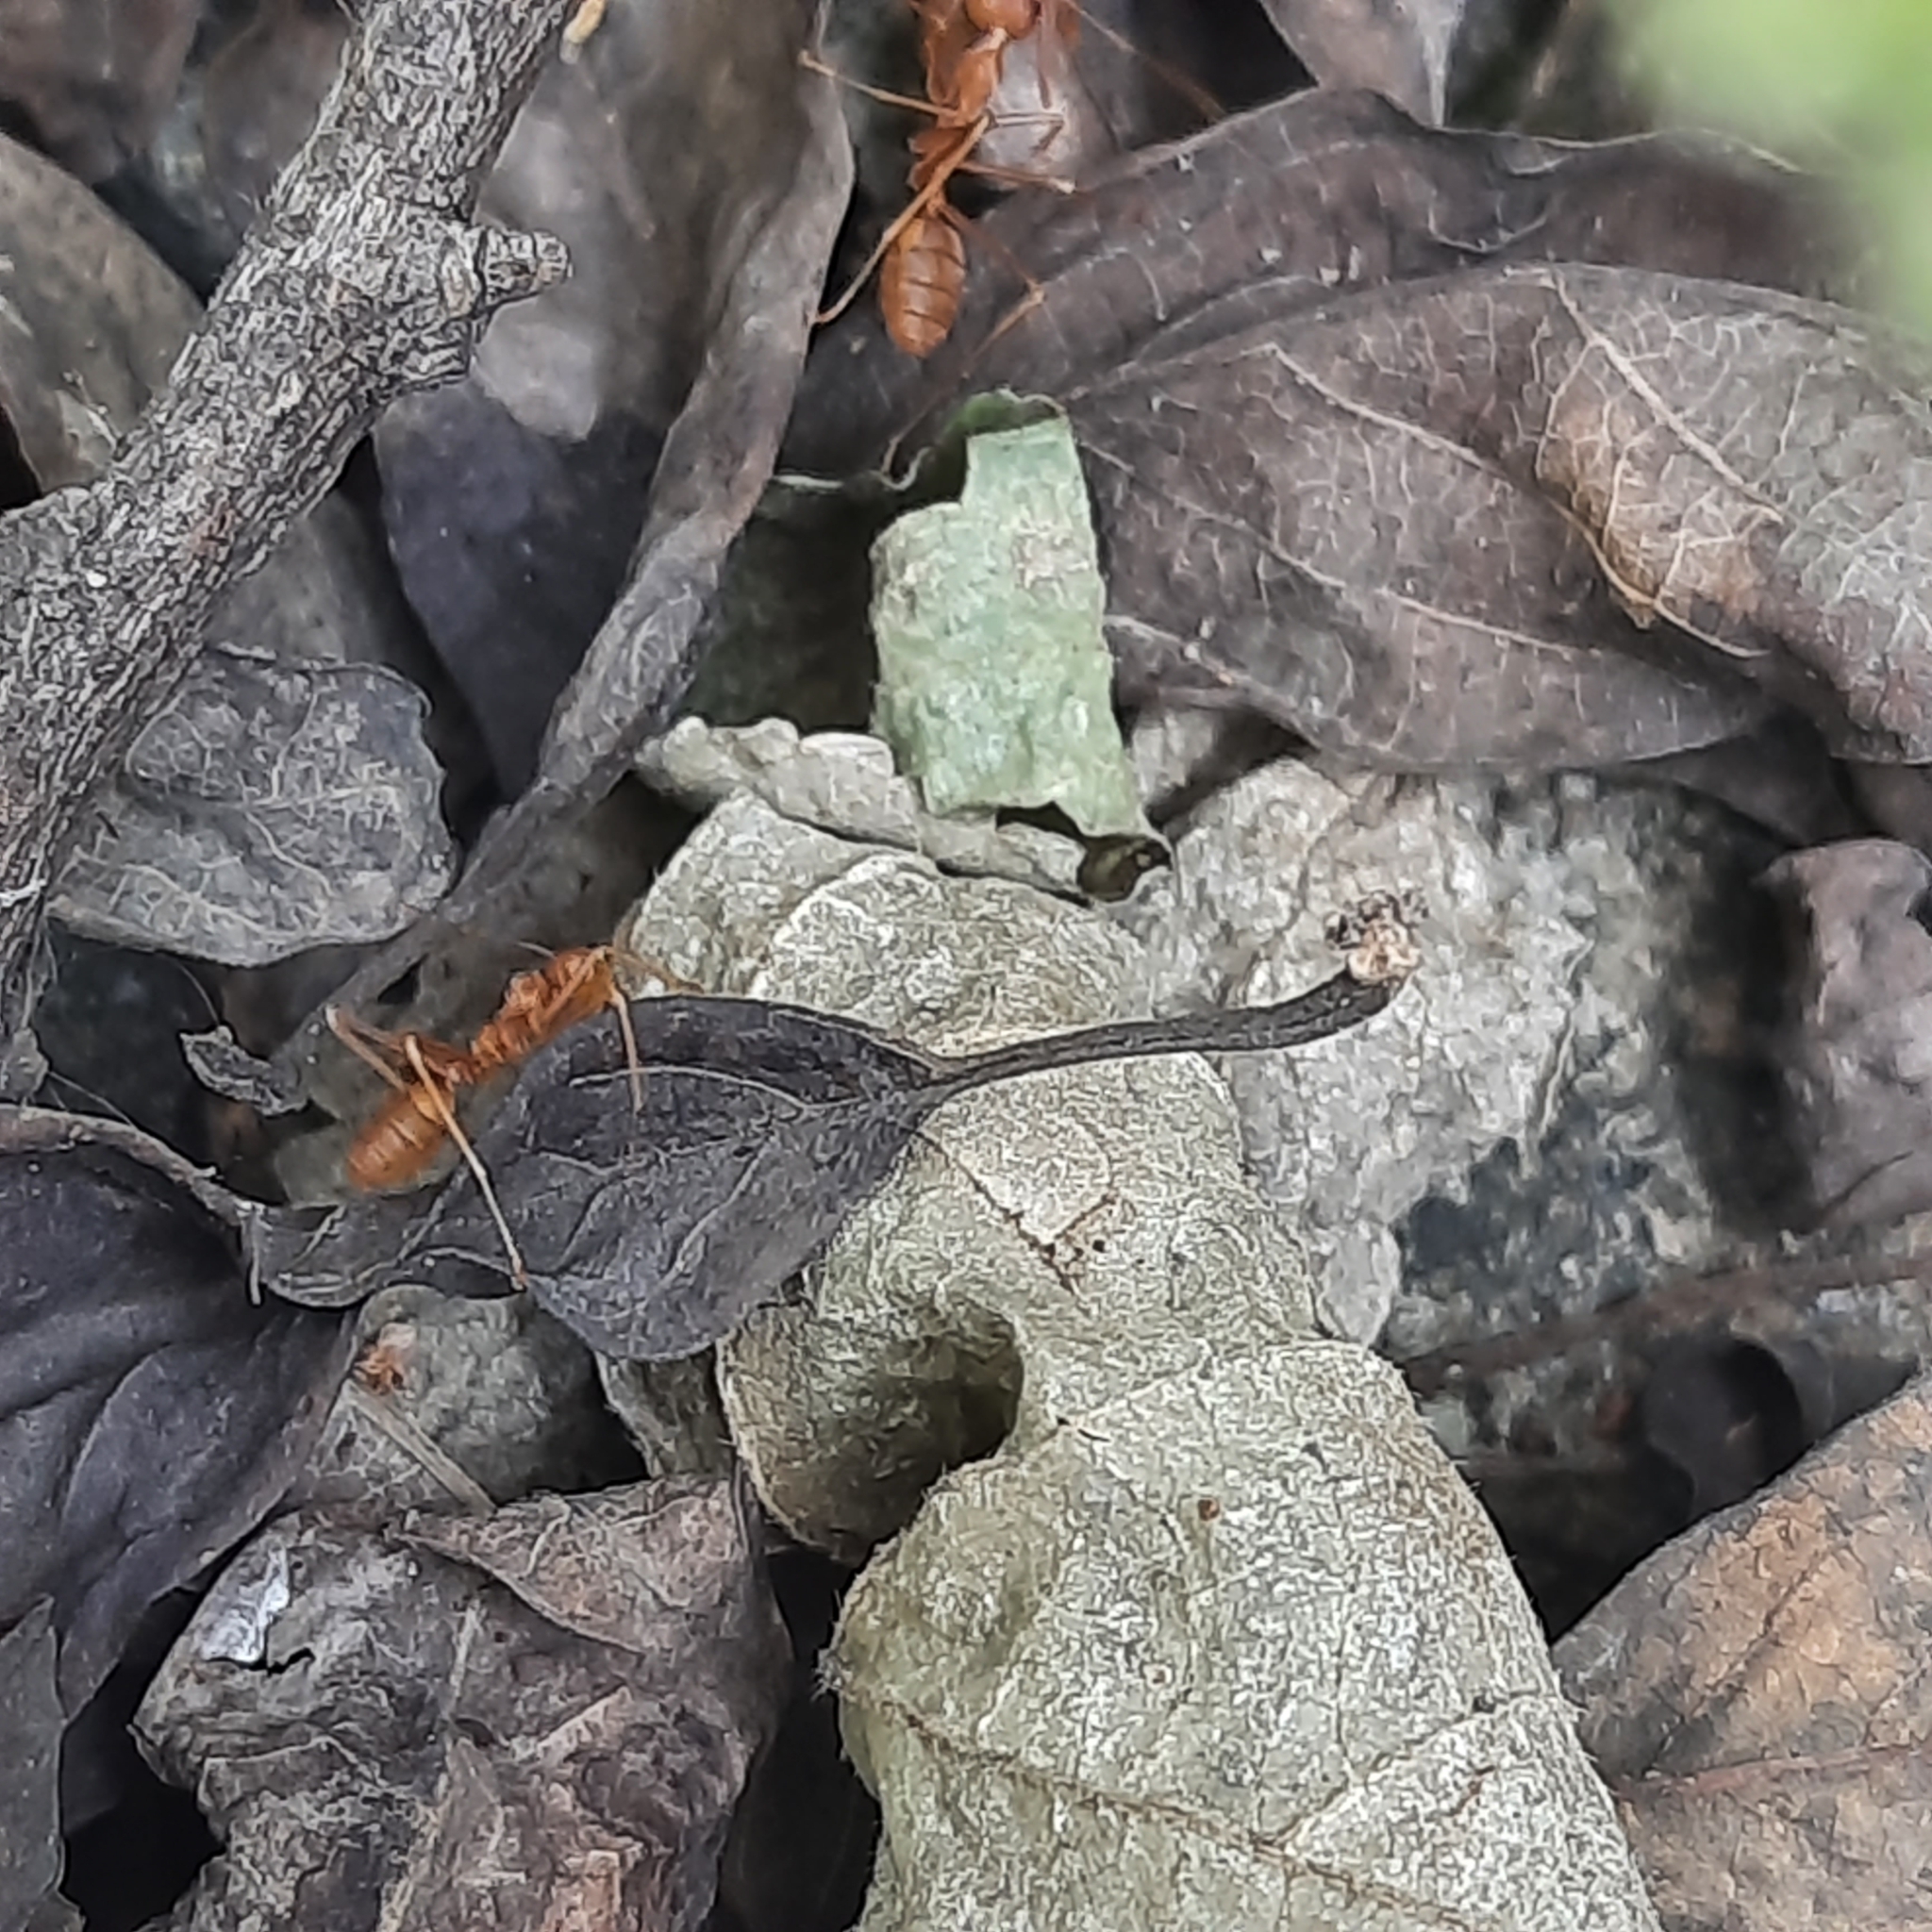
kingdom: Animalia
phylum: Arthropoda
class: Insecta
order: Hymenoptera
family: Formicidae
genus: Oecophylla
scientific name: Oecophylla smaragdina
